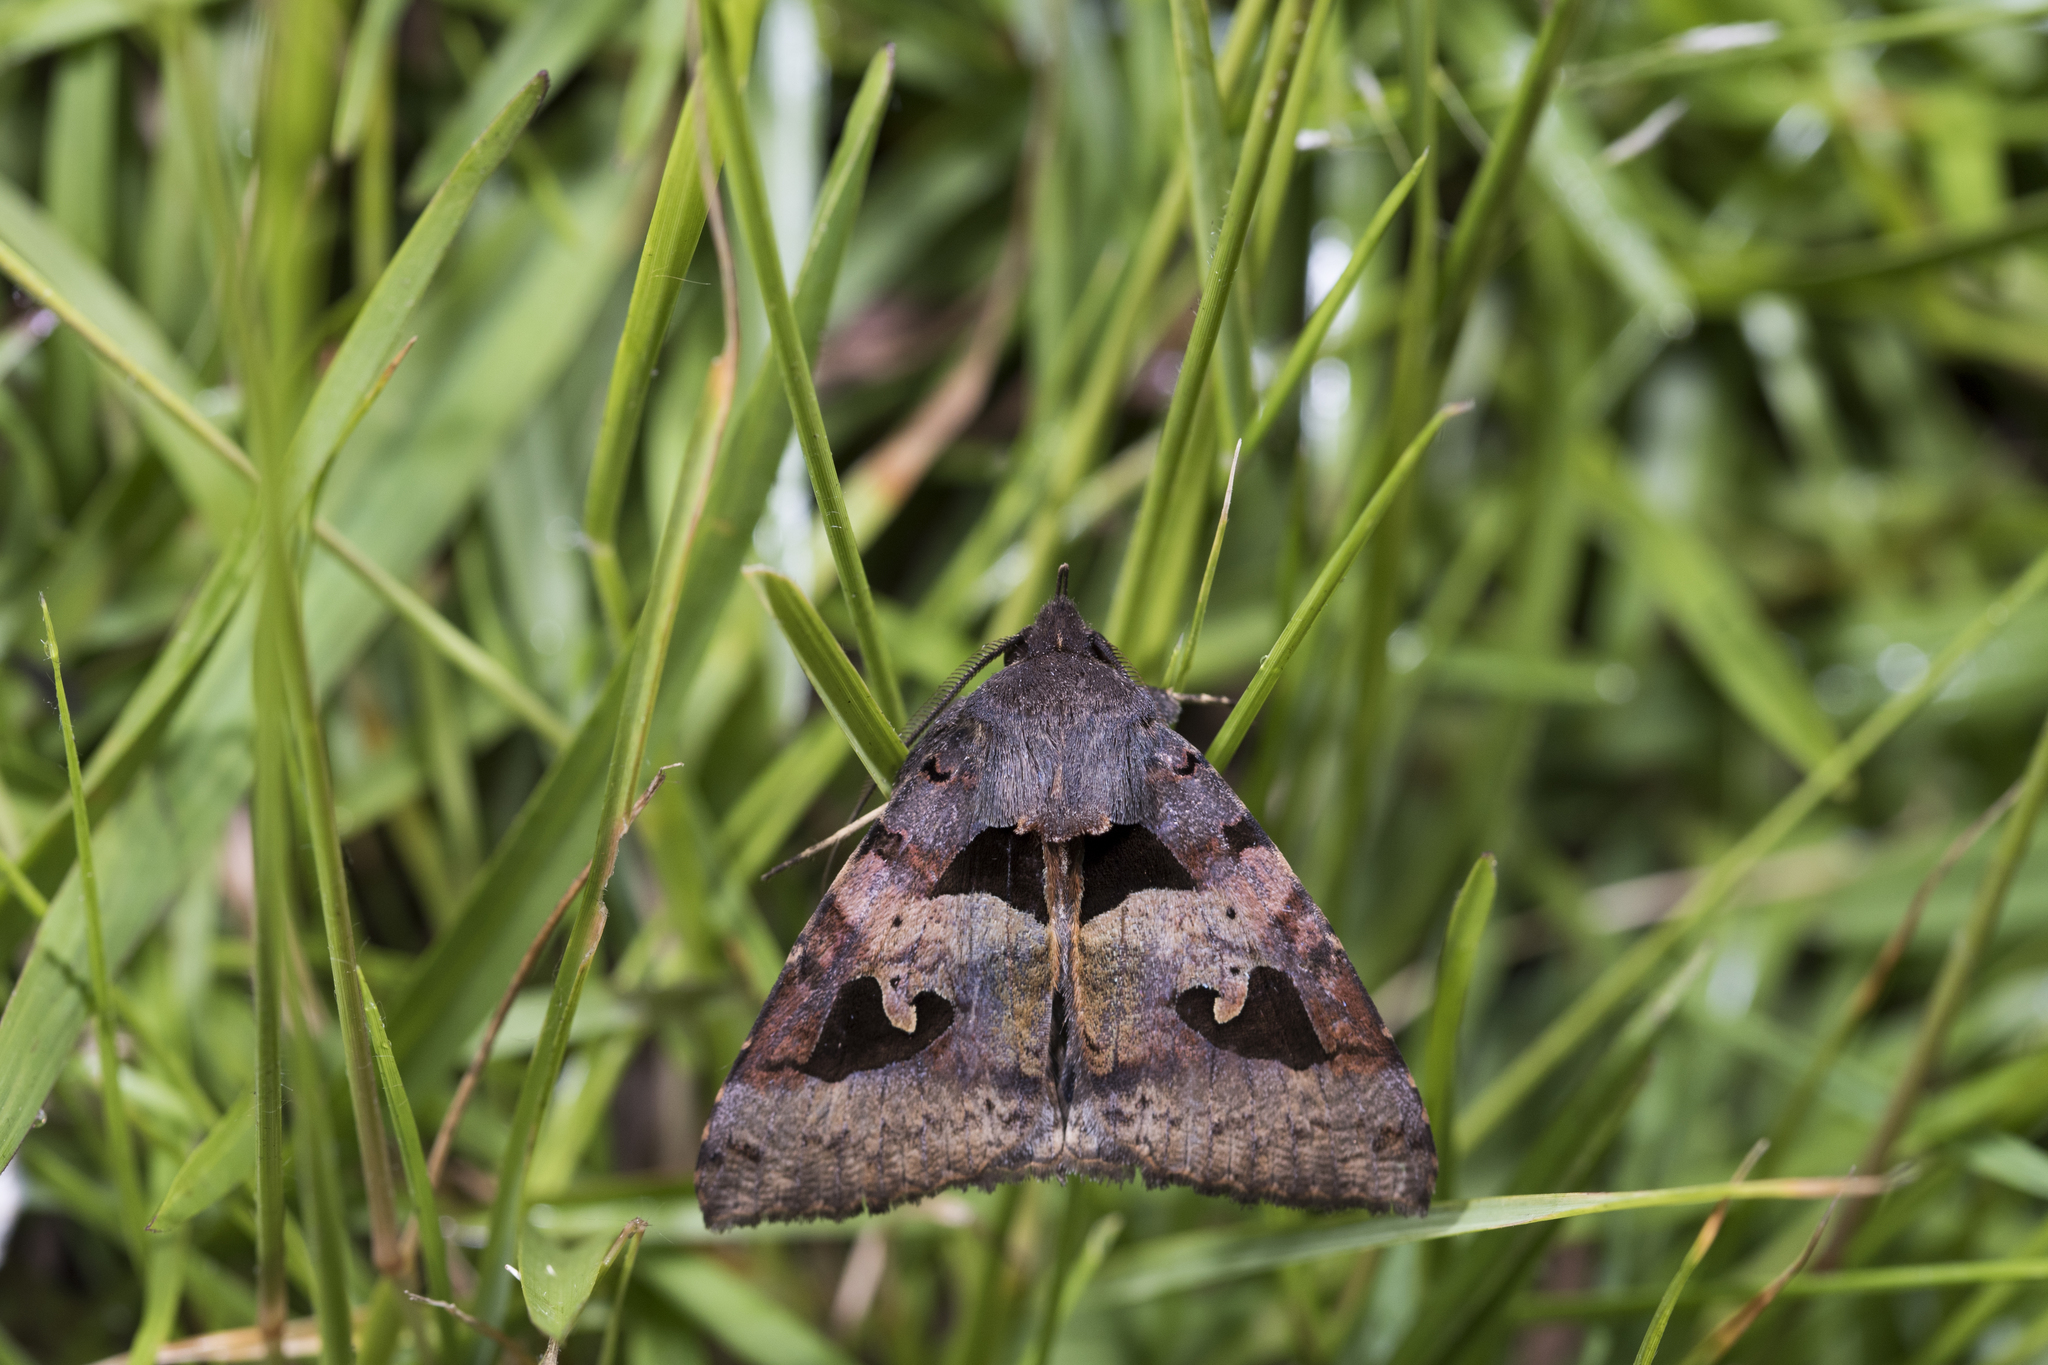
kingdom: Animalia
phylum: Arthropoda
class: Insecta
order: Lepidoptera
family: Erebidae
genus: Avatha
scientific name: Avatha chinensis
